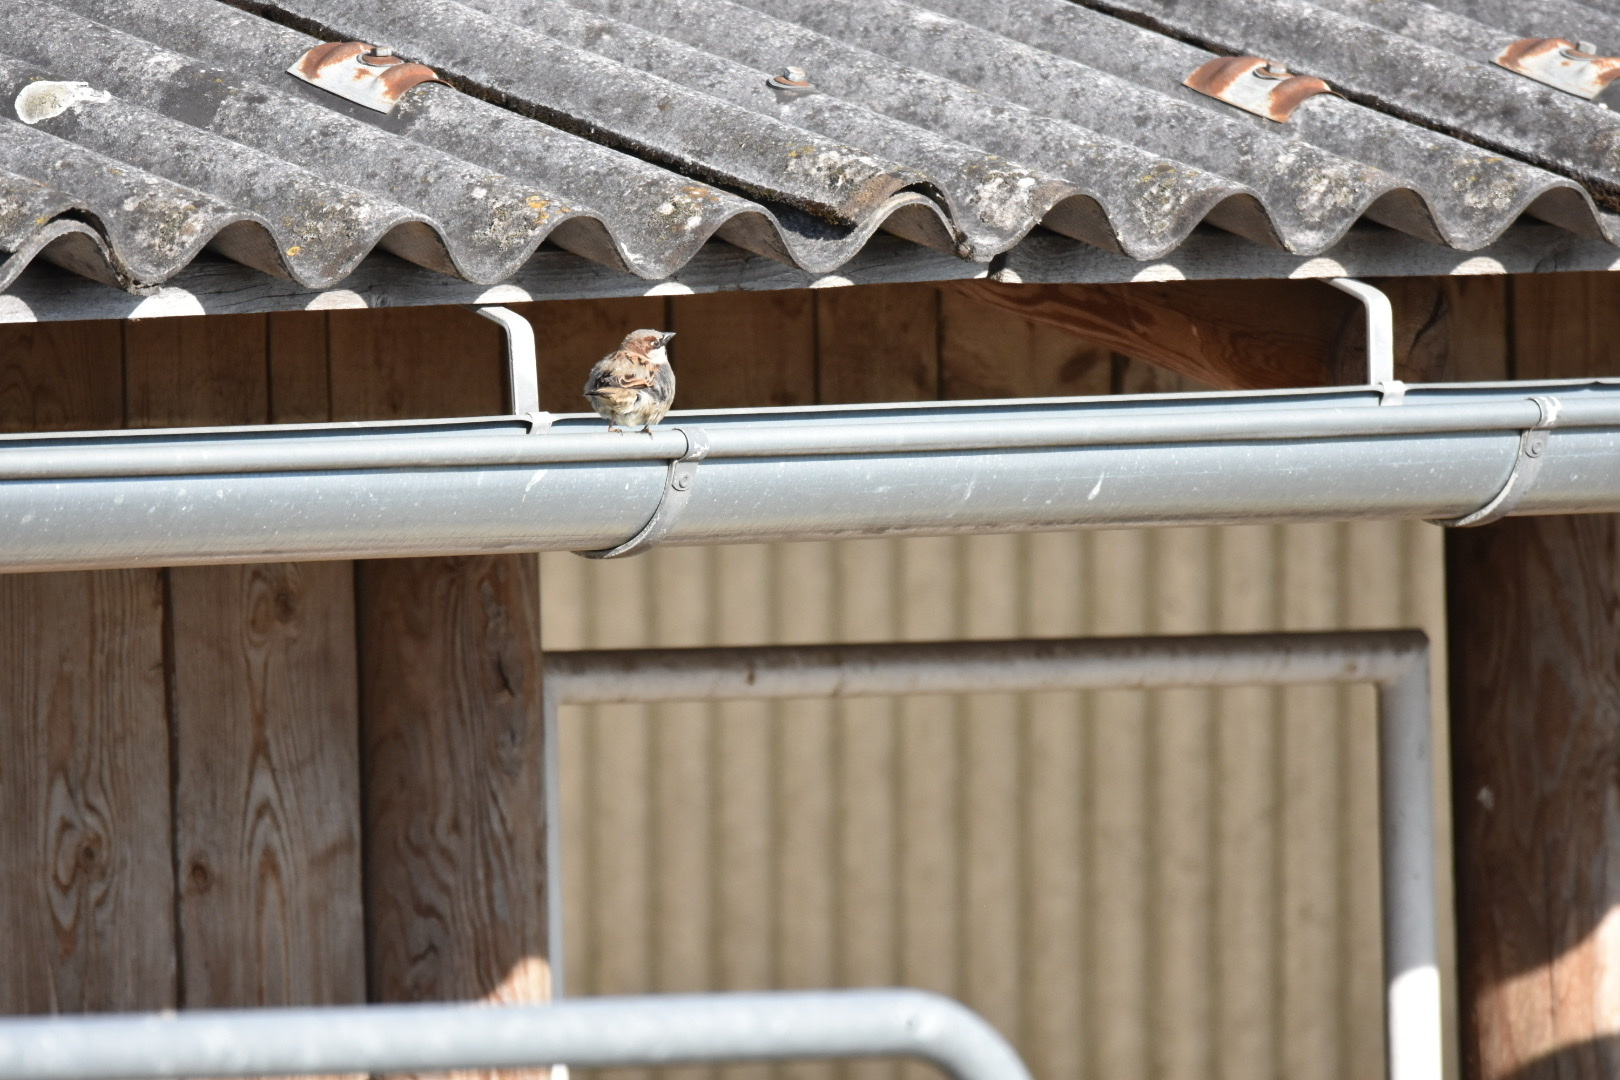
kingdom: Animalia
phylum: Chordata
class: Aves
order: Passeriformes
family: Passeridae
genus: Passer
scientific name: Passer domesticus
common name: House sparrow
